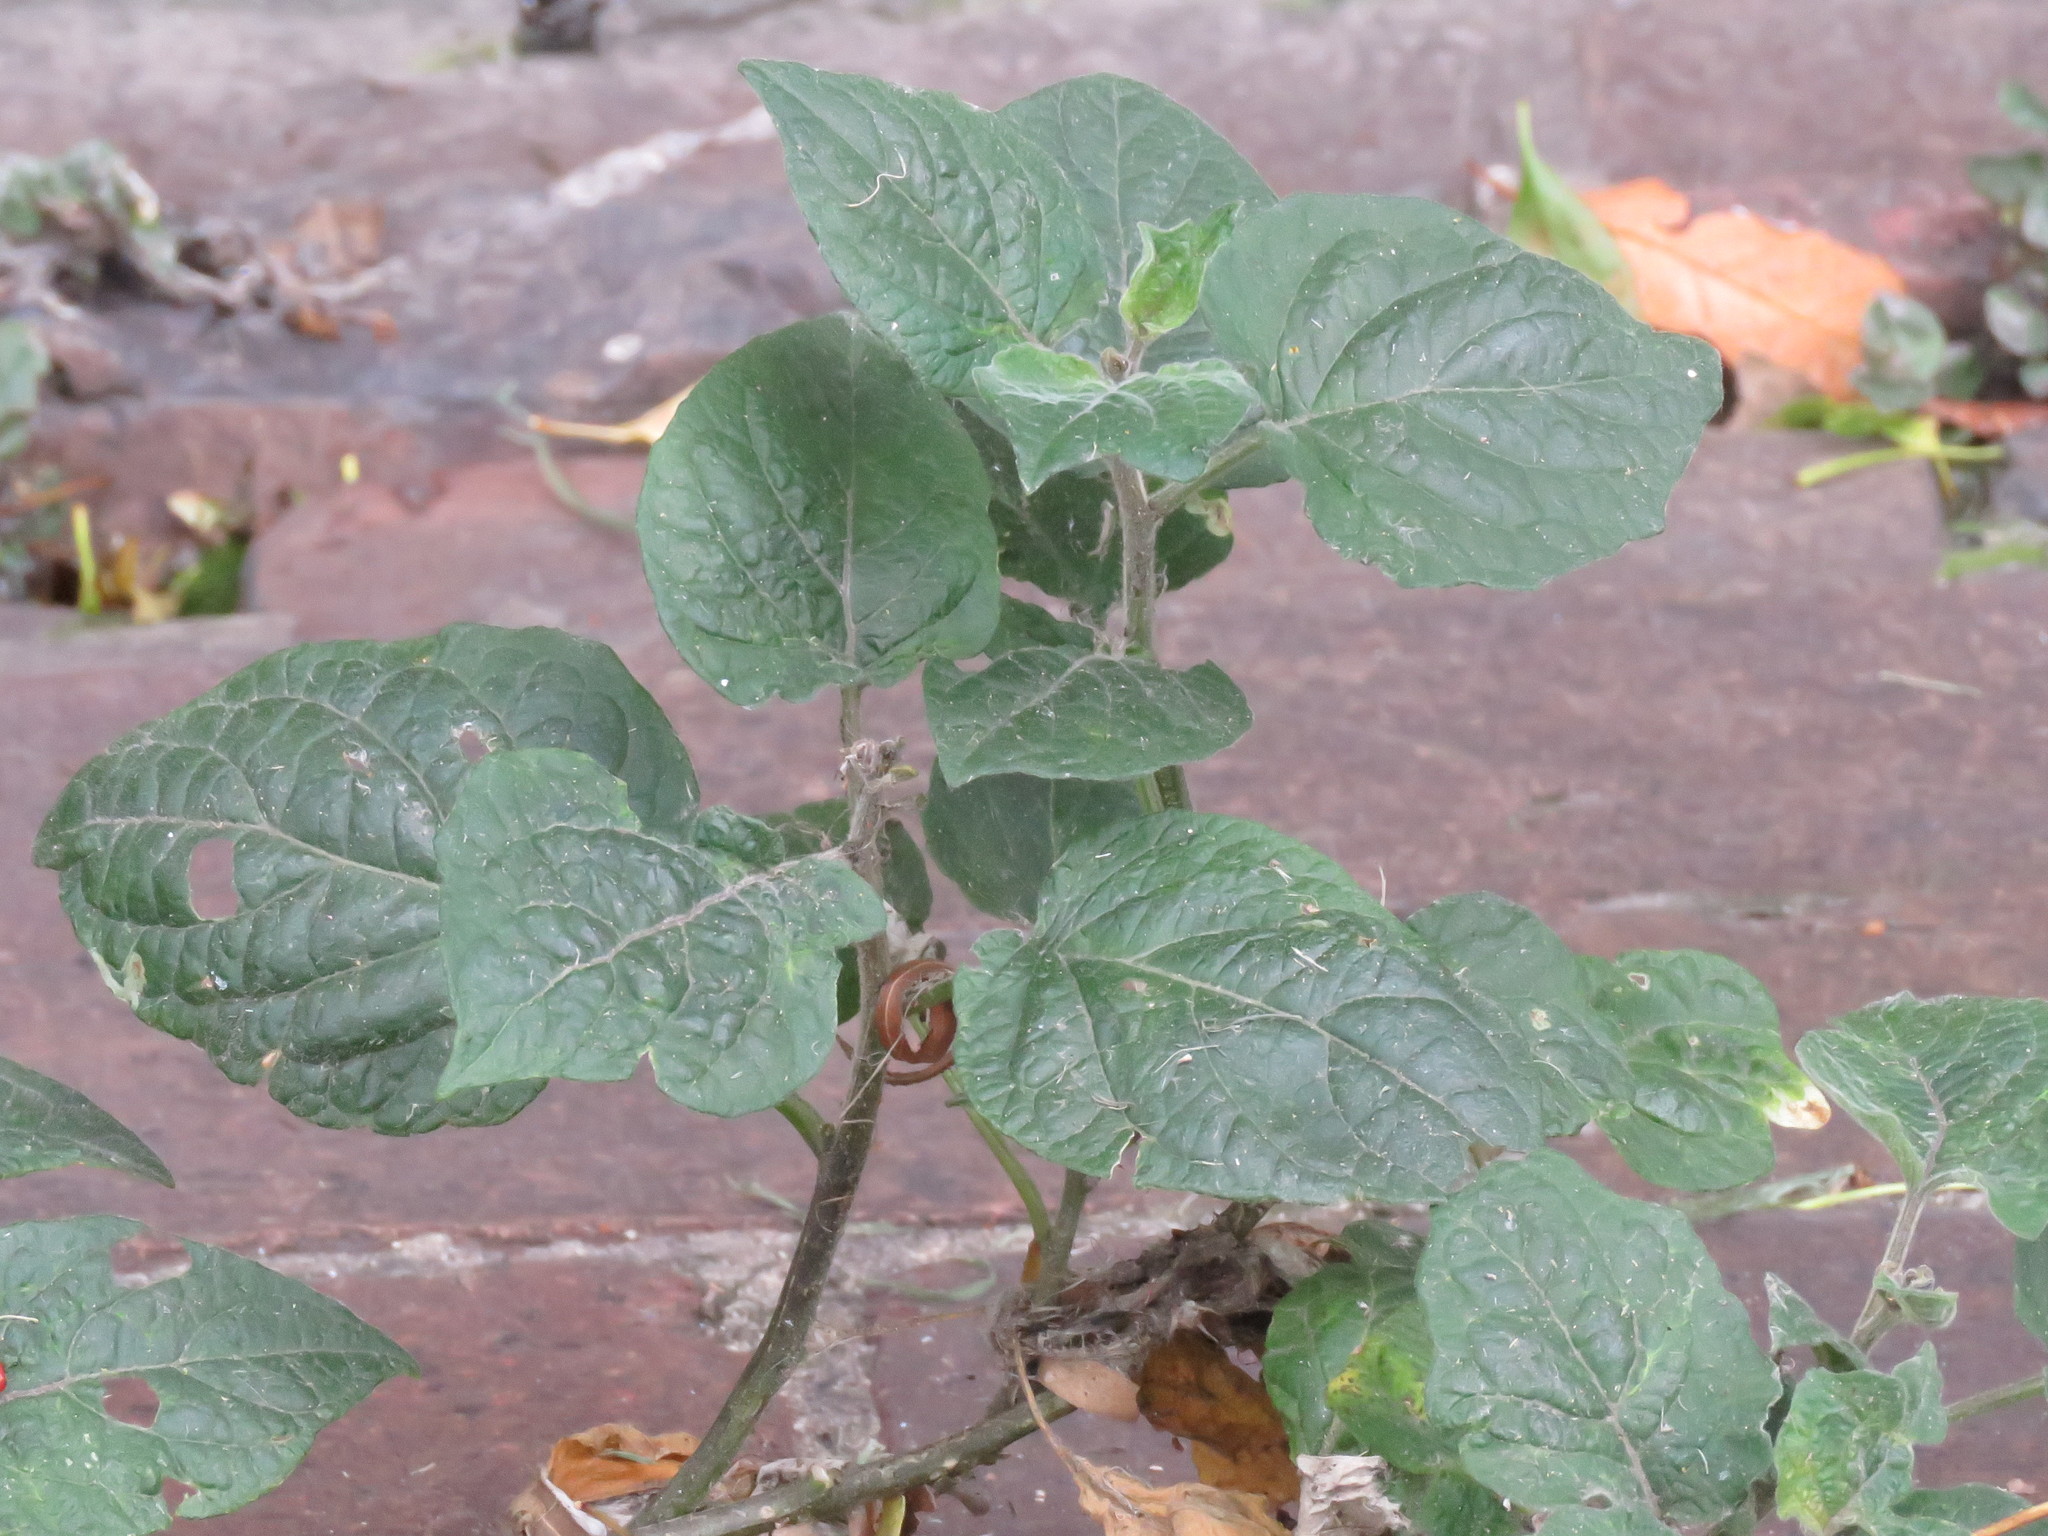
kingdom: Plantae
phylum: Tracheophyta
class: Magnoliopsida
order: Solanales
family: Solanaceae
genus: Physalis
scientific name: Physalis peruviana
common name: Cape-gooseberry
